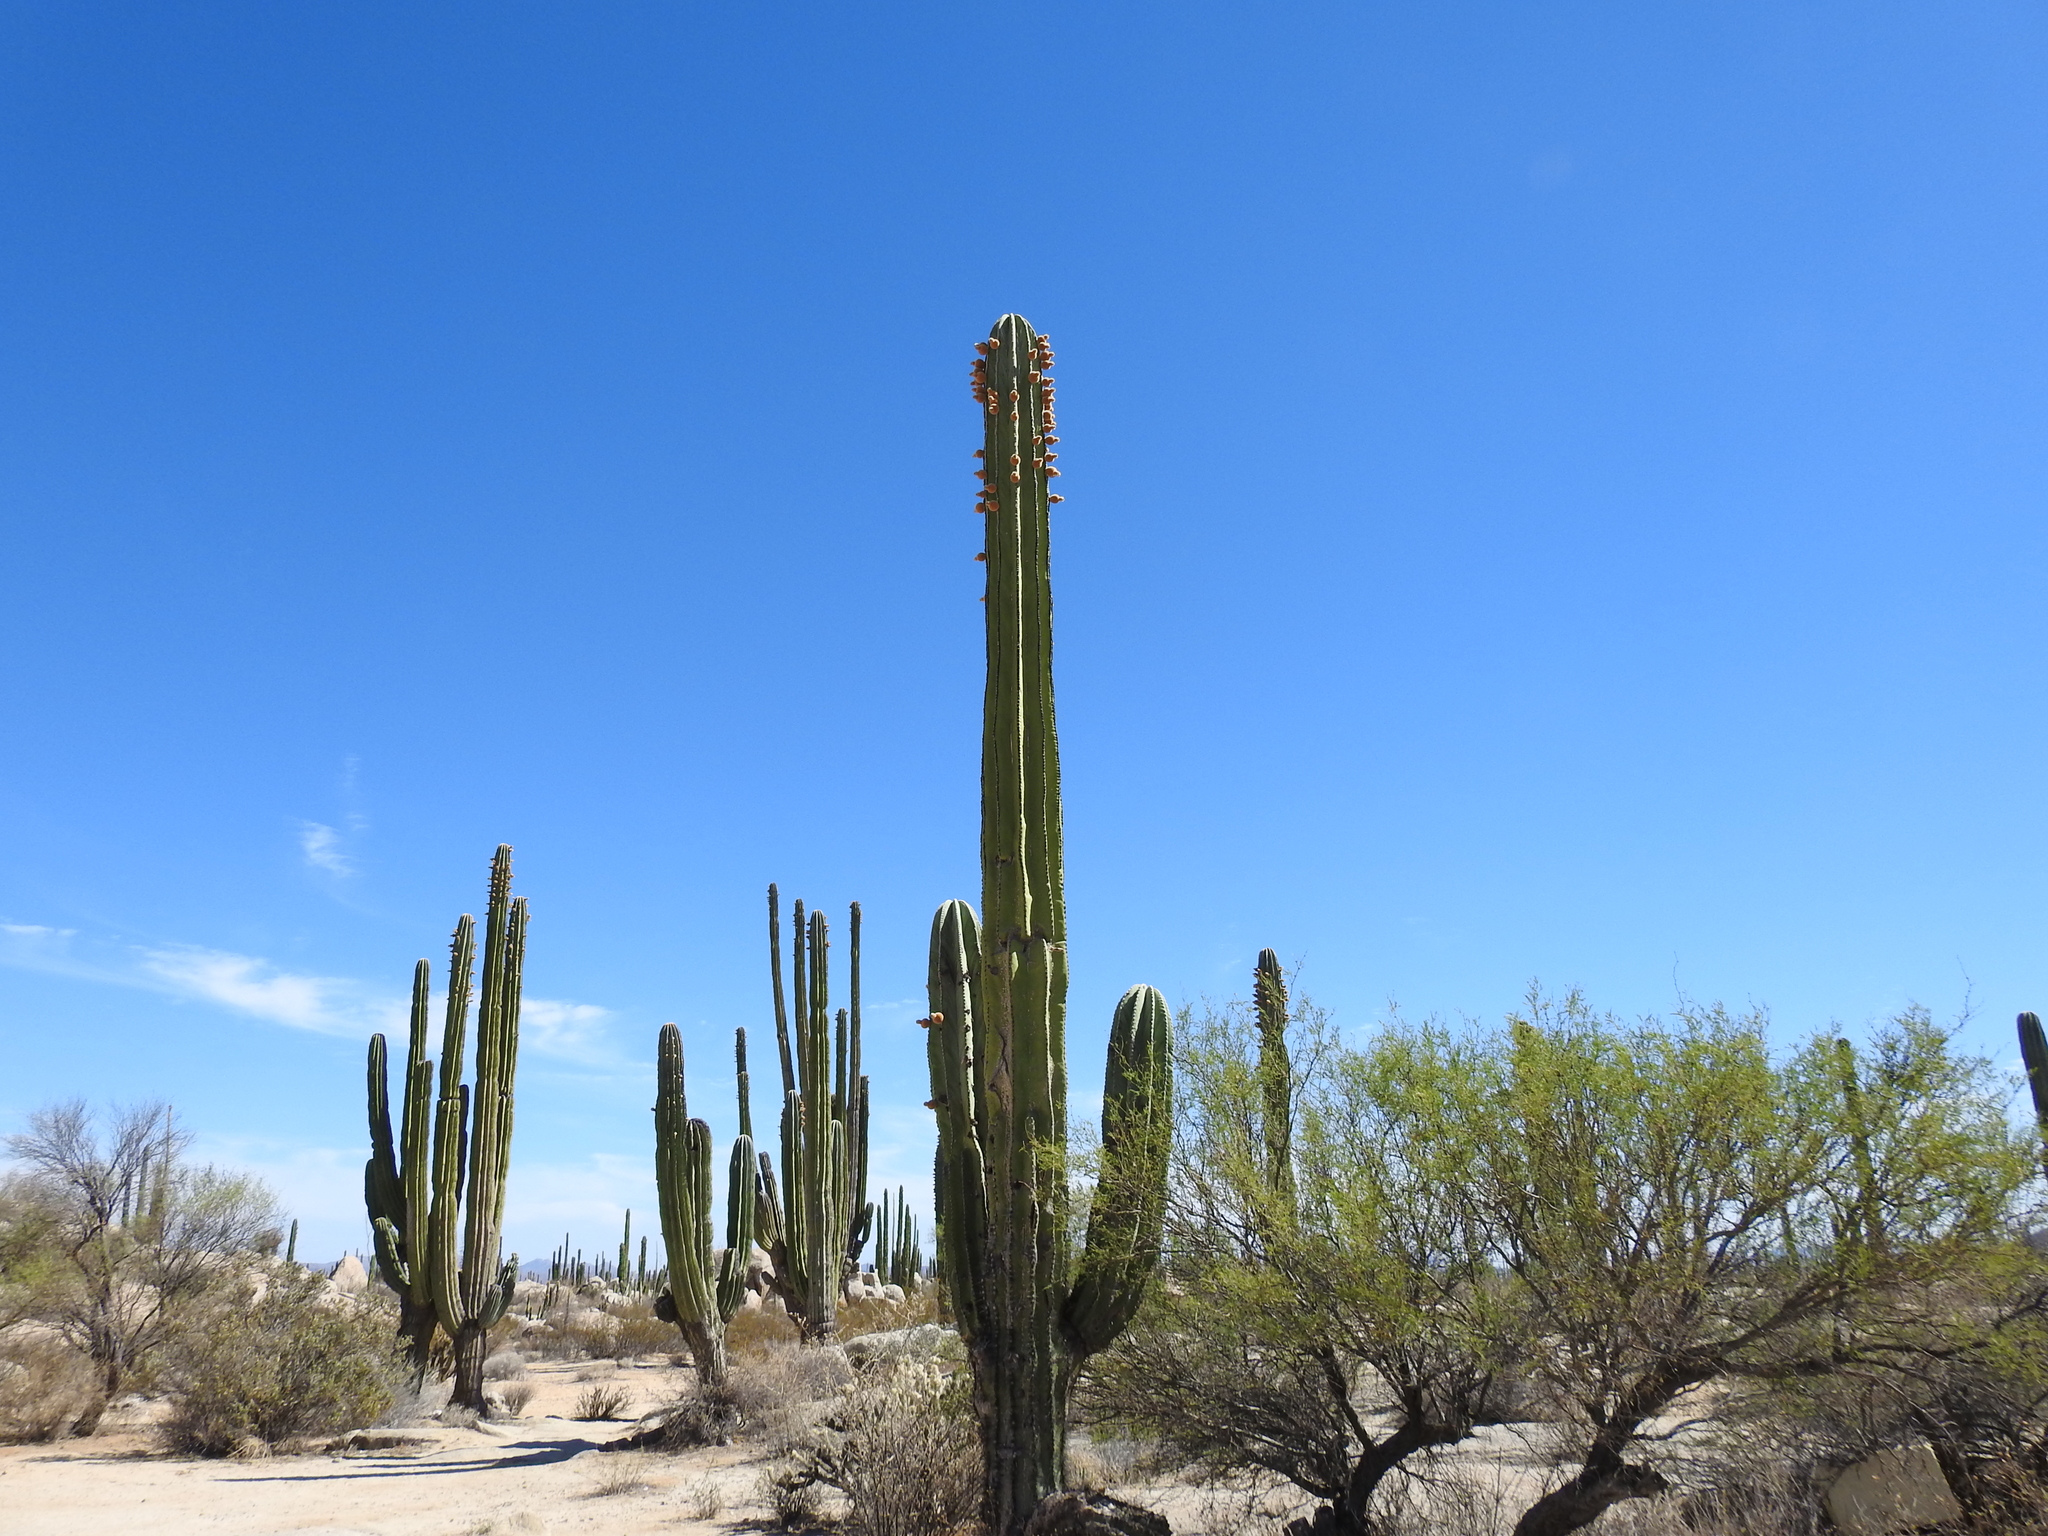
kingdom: Plantae
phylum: Tracheophyta
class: Magnoliopsida
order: Caryophyllales
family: Cactaceae
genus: Pachycereus
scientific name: Pachycereus pringlei
